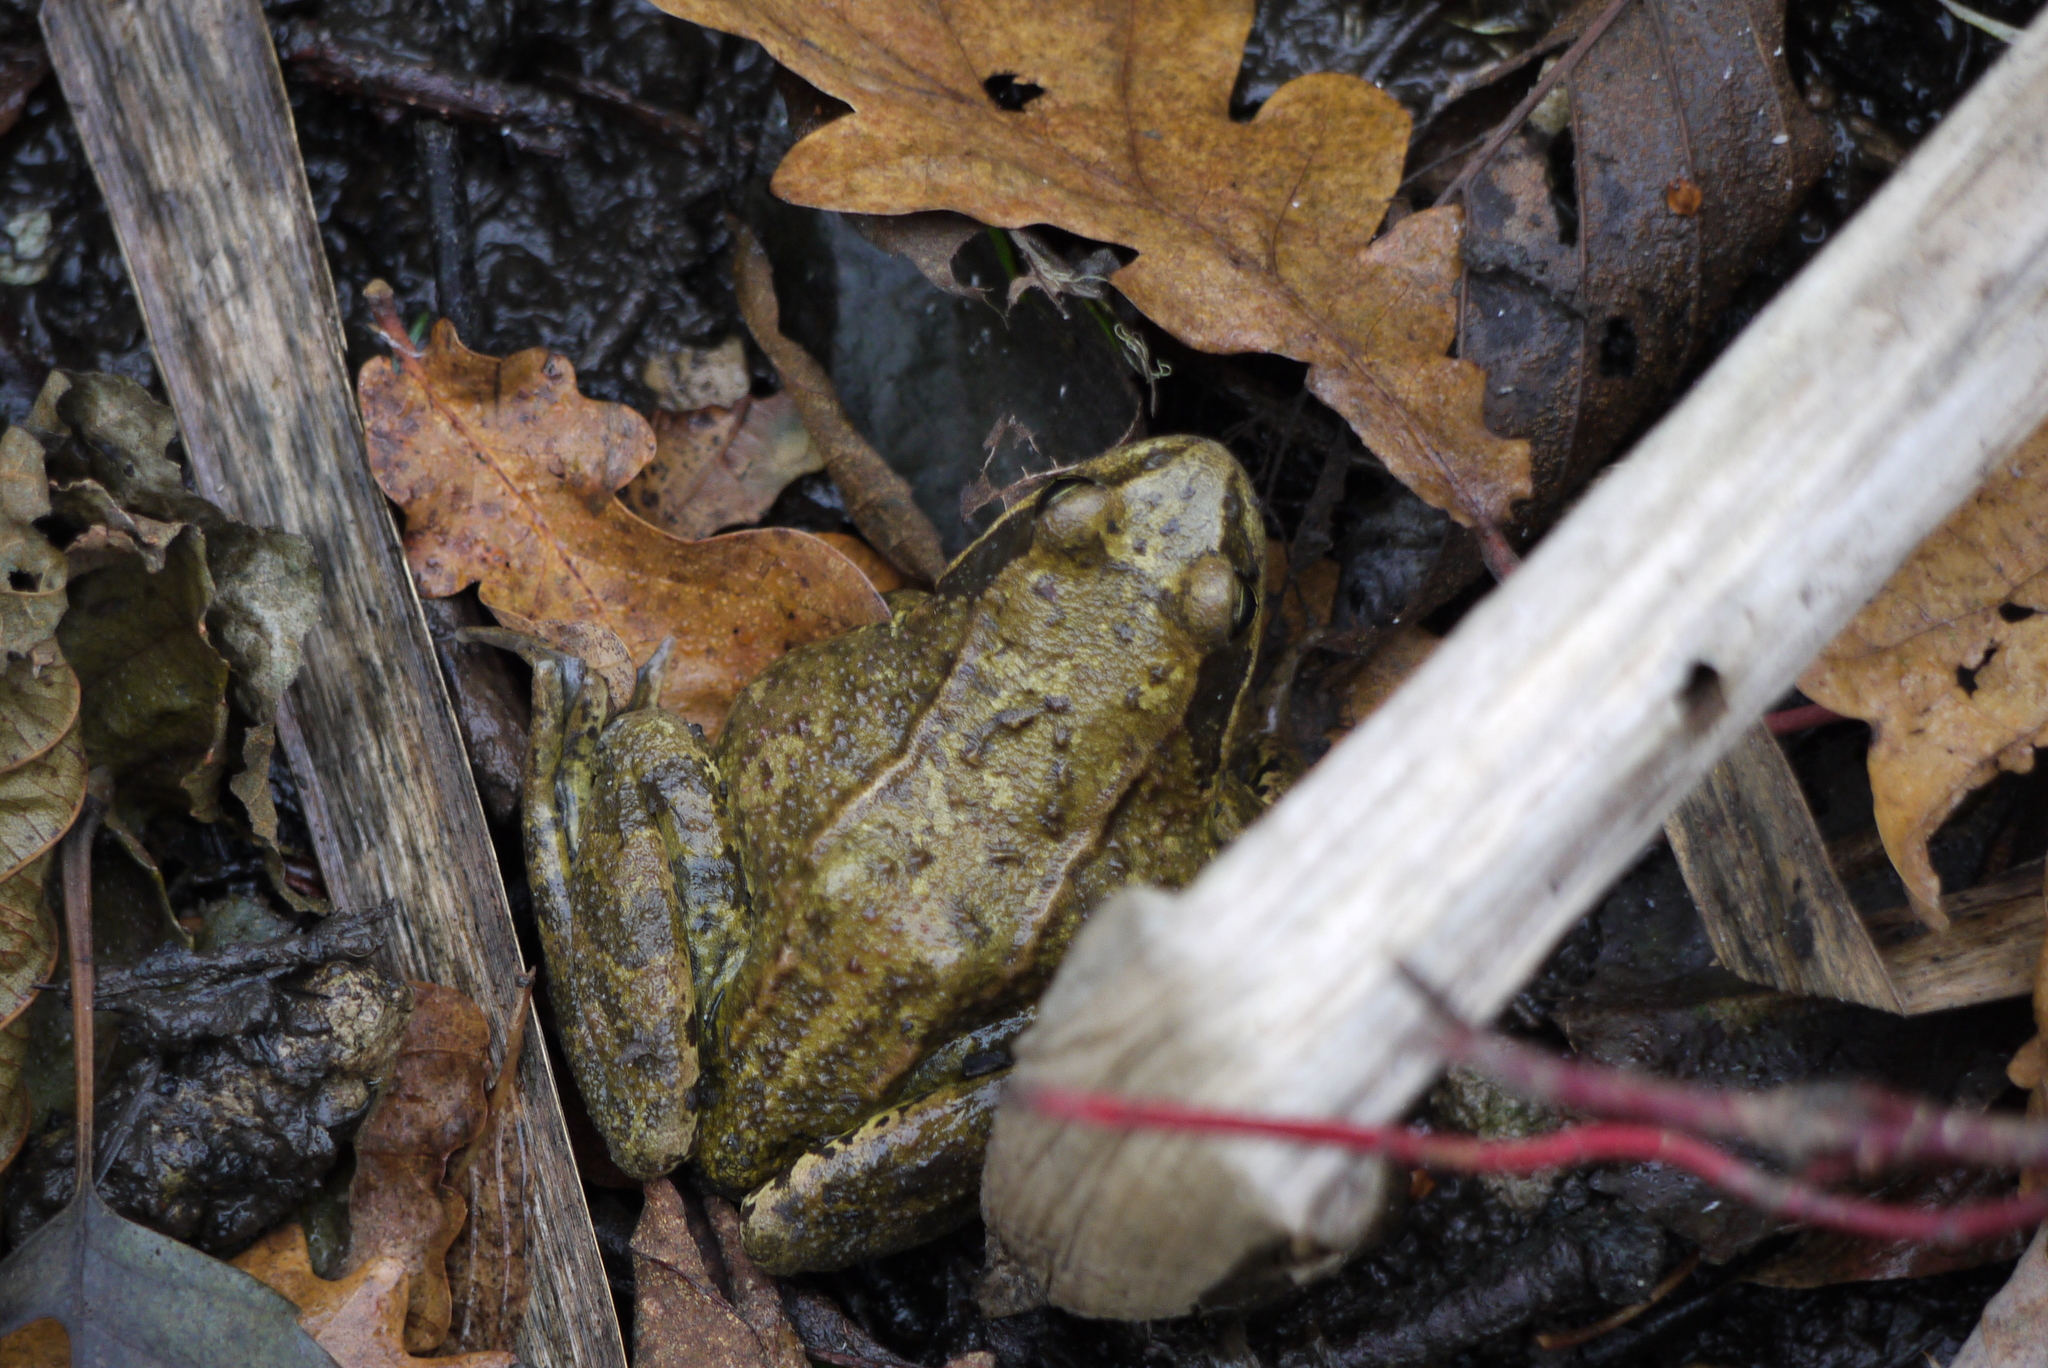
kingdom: Animalia
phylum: Chordata
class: Amphibia
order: Anura
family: Ranidae
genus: Rana
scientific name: Rana temporaria
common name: Common frog
